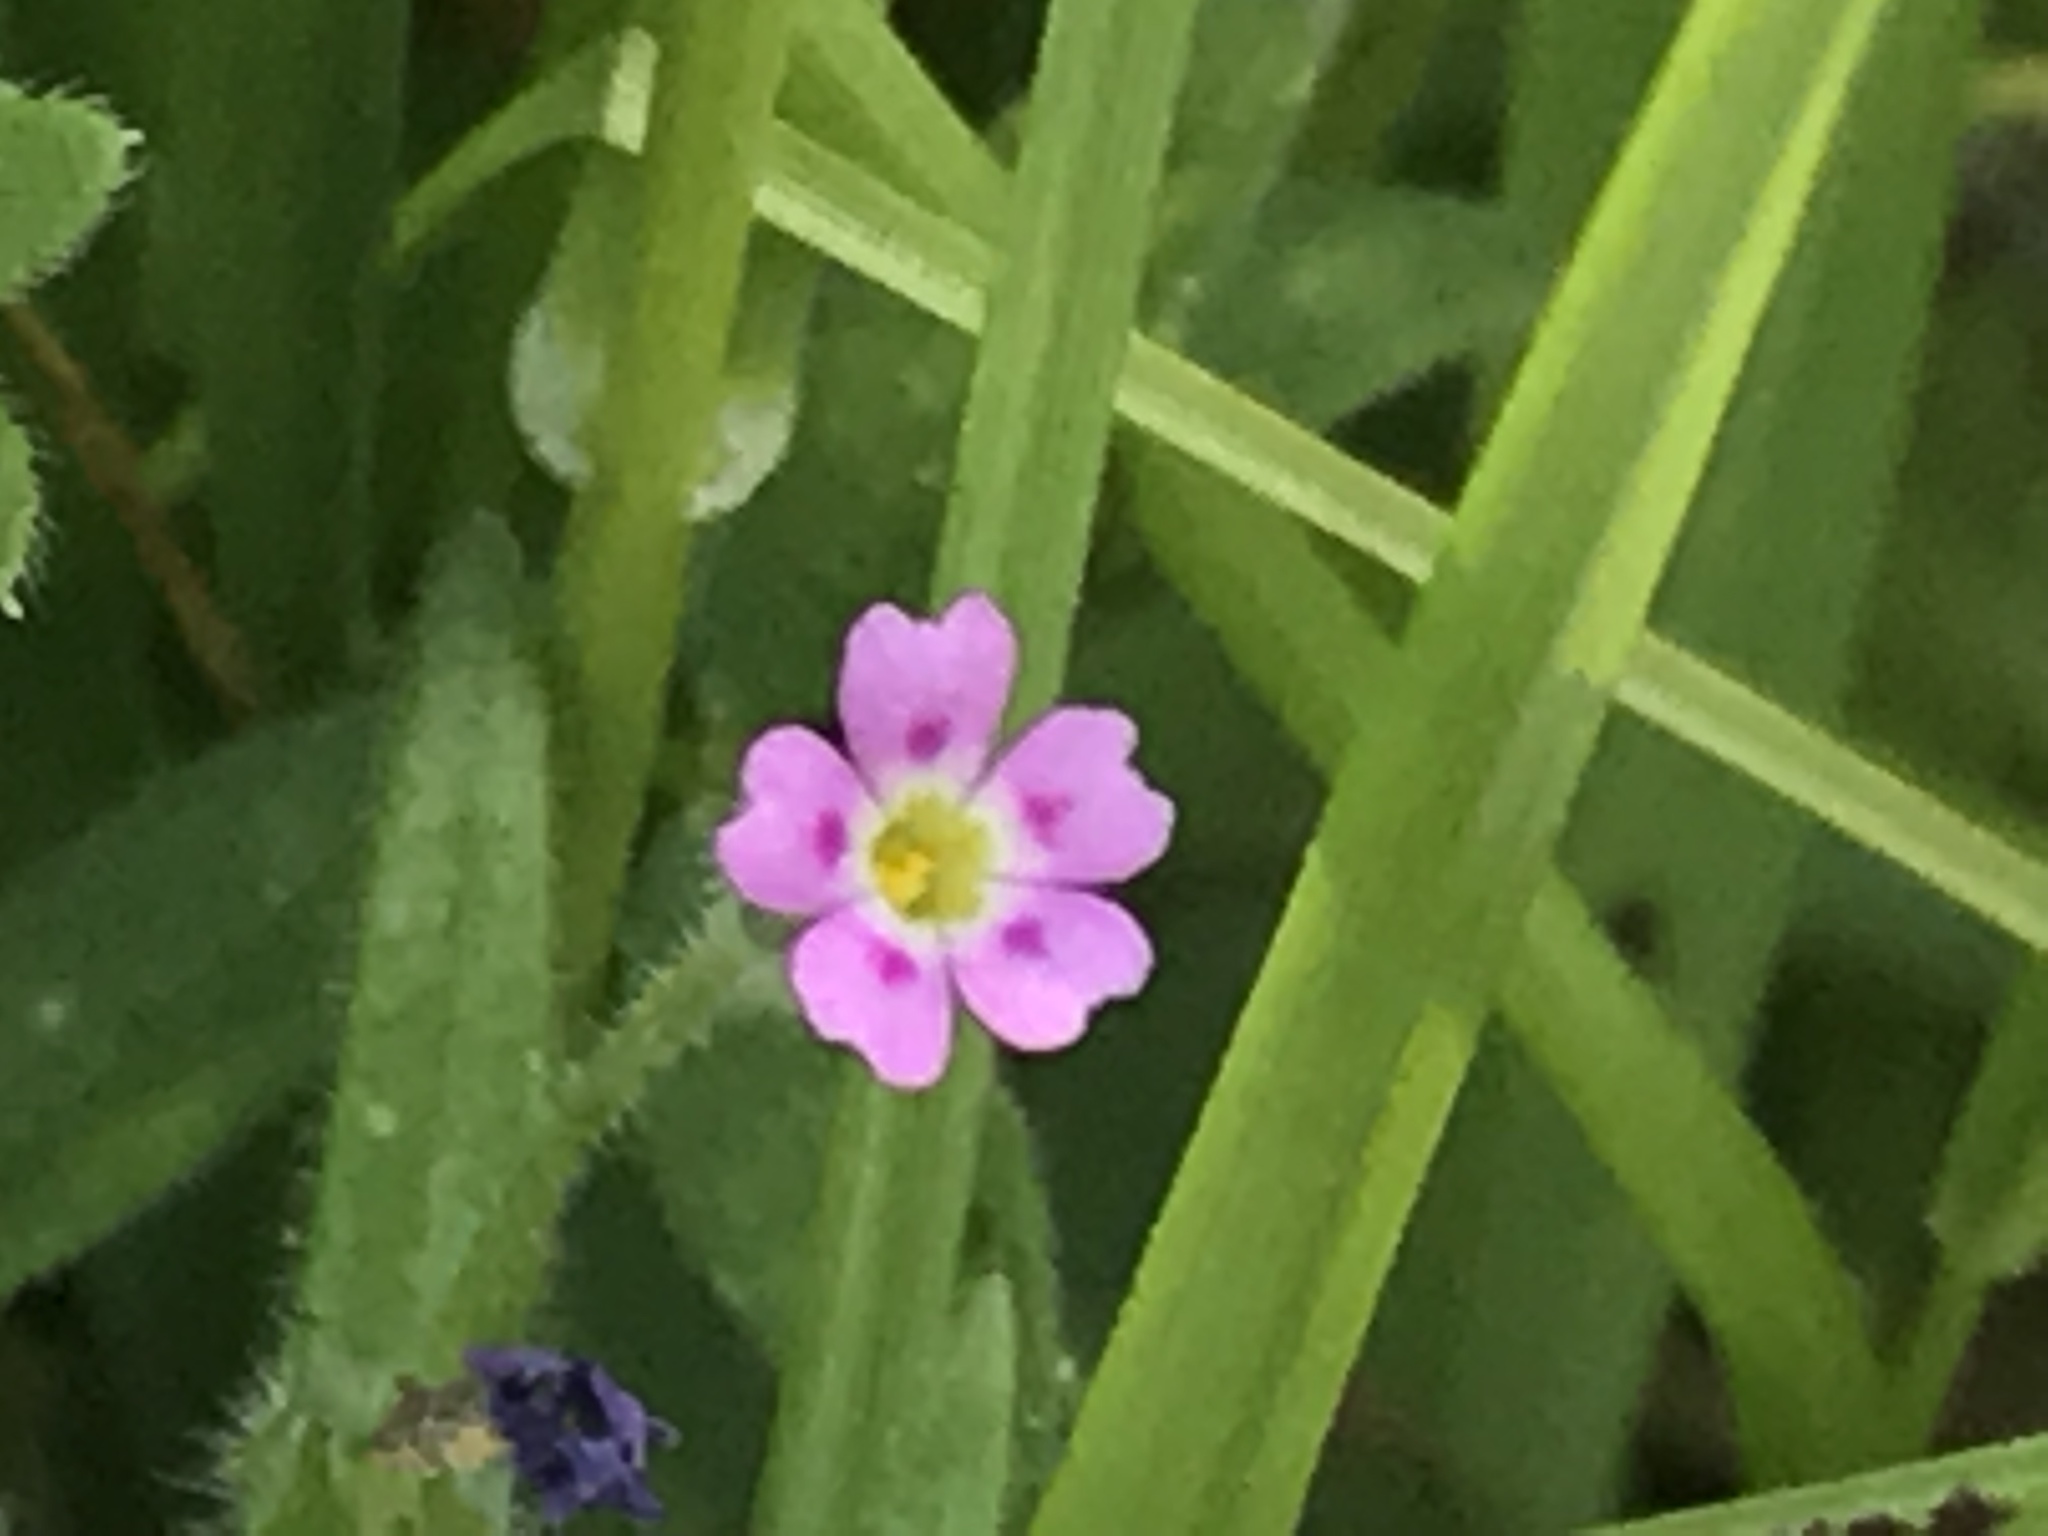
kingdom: Plantae
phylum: Tracheophyta
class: Magnoliopsida
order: Ericales
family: Polemoniaceae
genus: Phlox
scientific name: Phlox gracilis
